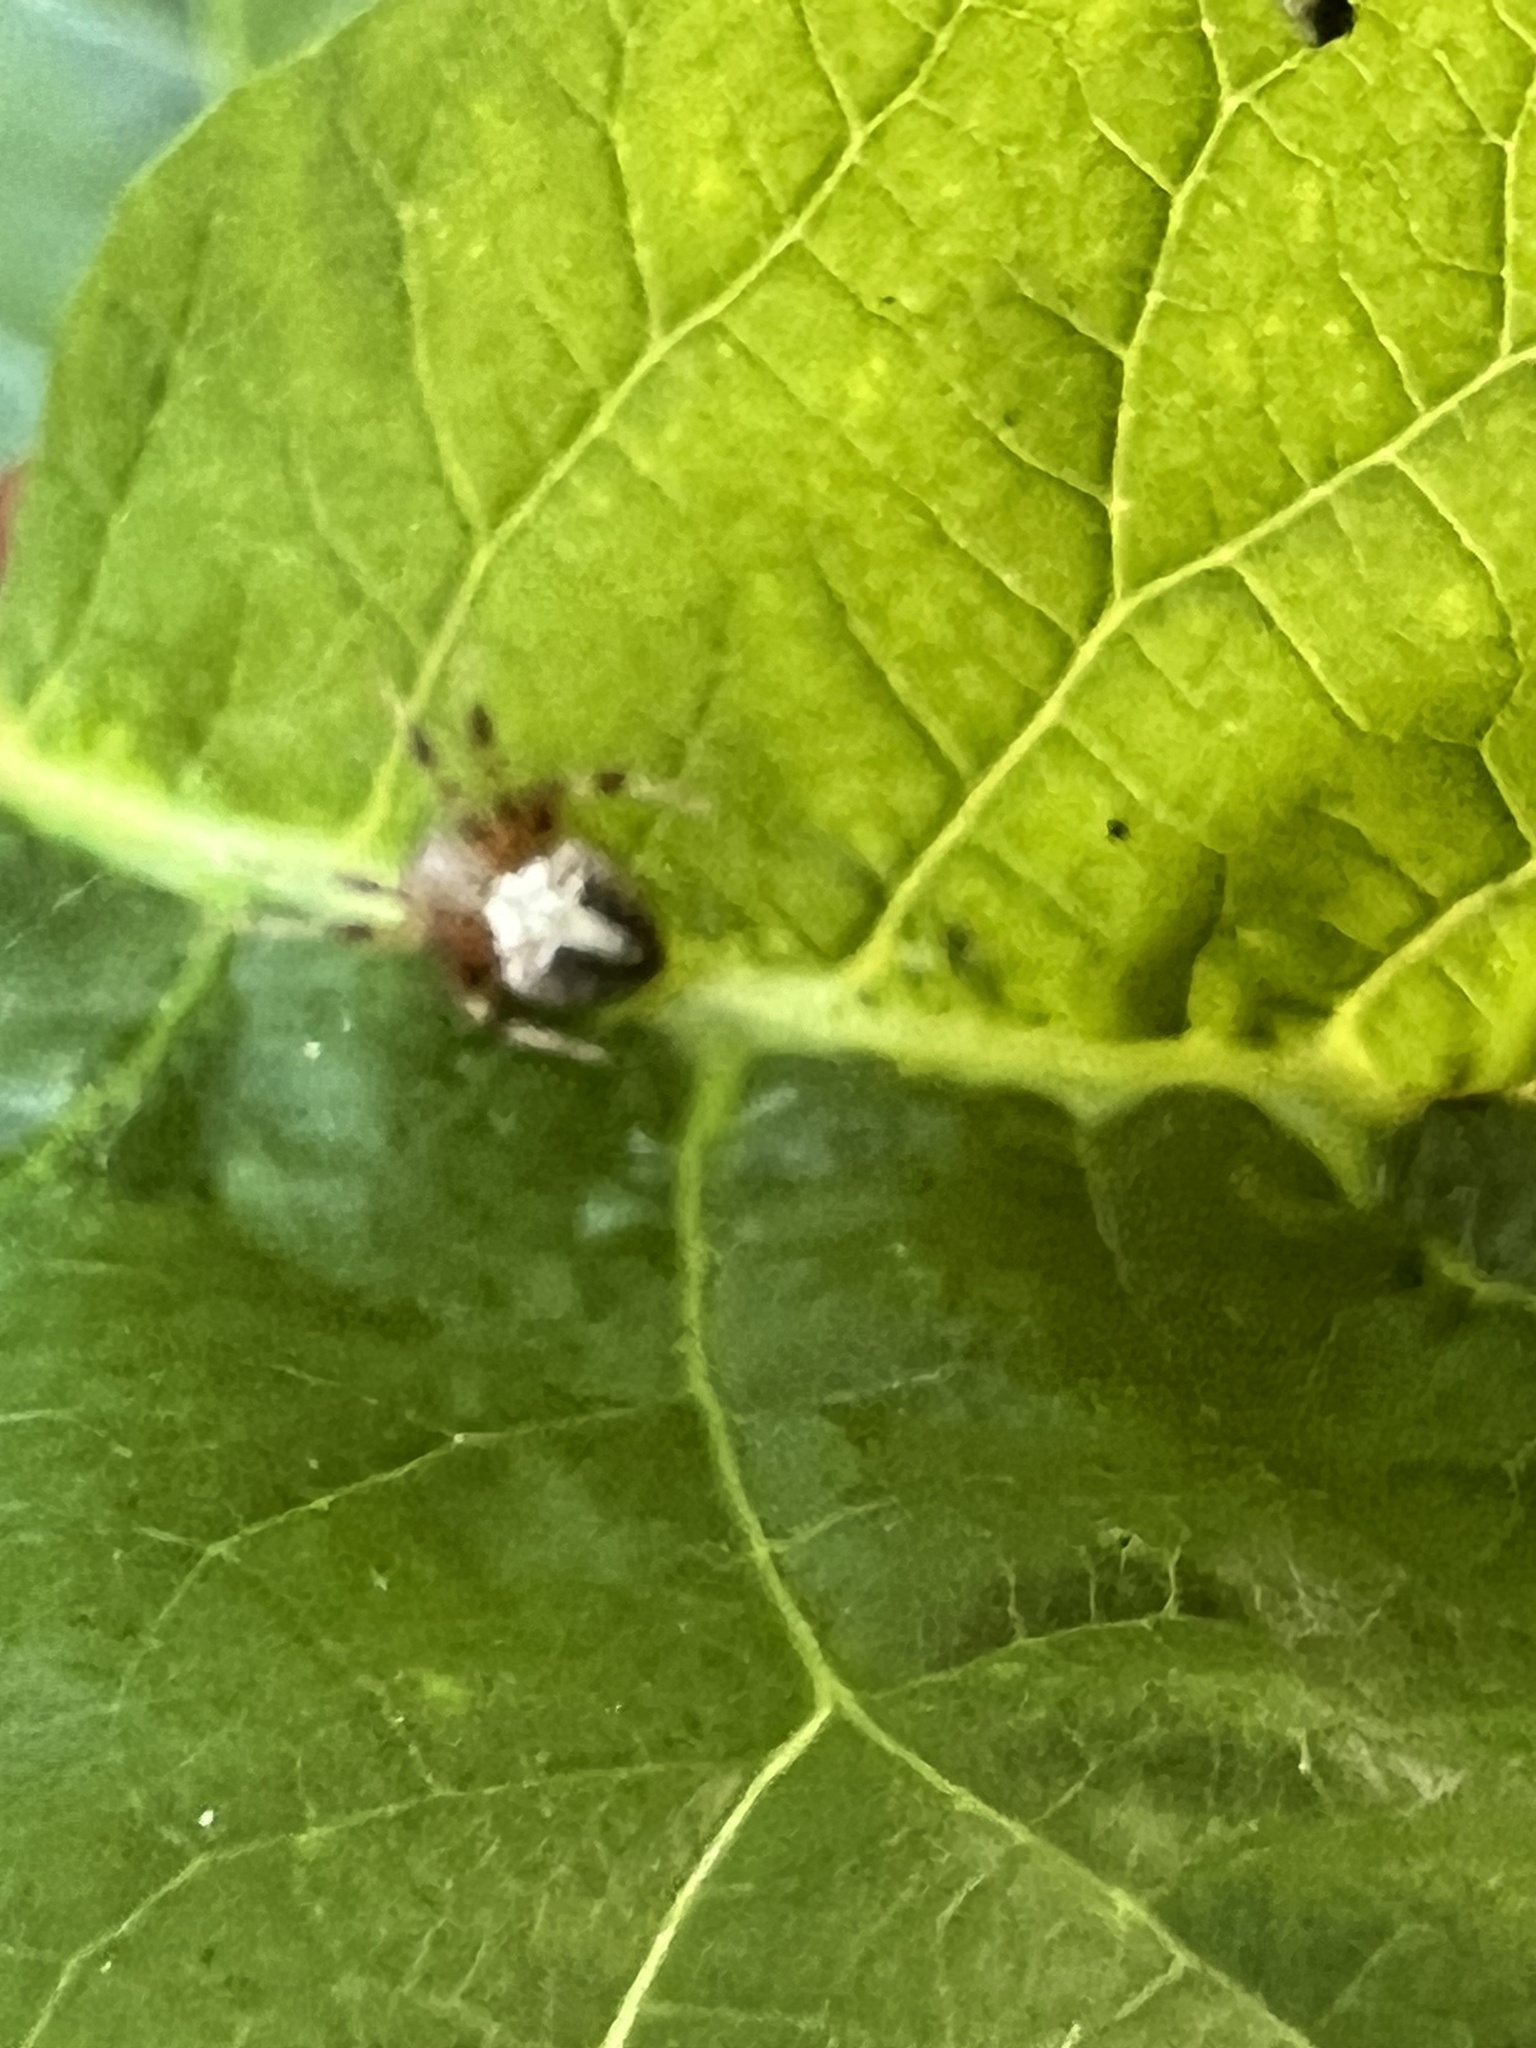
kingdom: Animalia
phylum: Arthropoda
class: Arachnida
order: Araneae
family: Araneidae
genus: Neoscona
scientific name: Neoscona domiciliorum
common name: Red-femured spotted orbweaver
